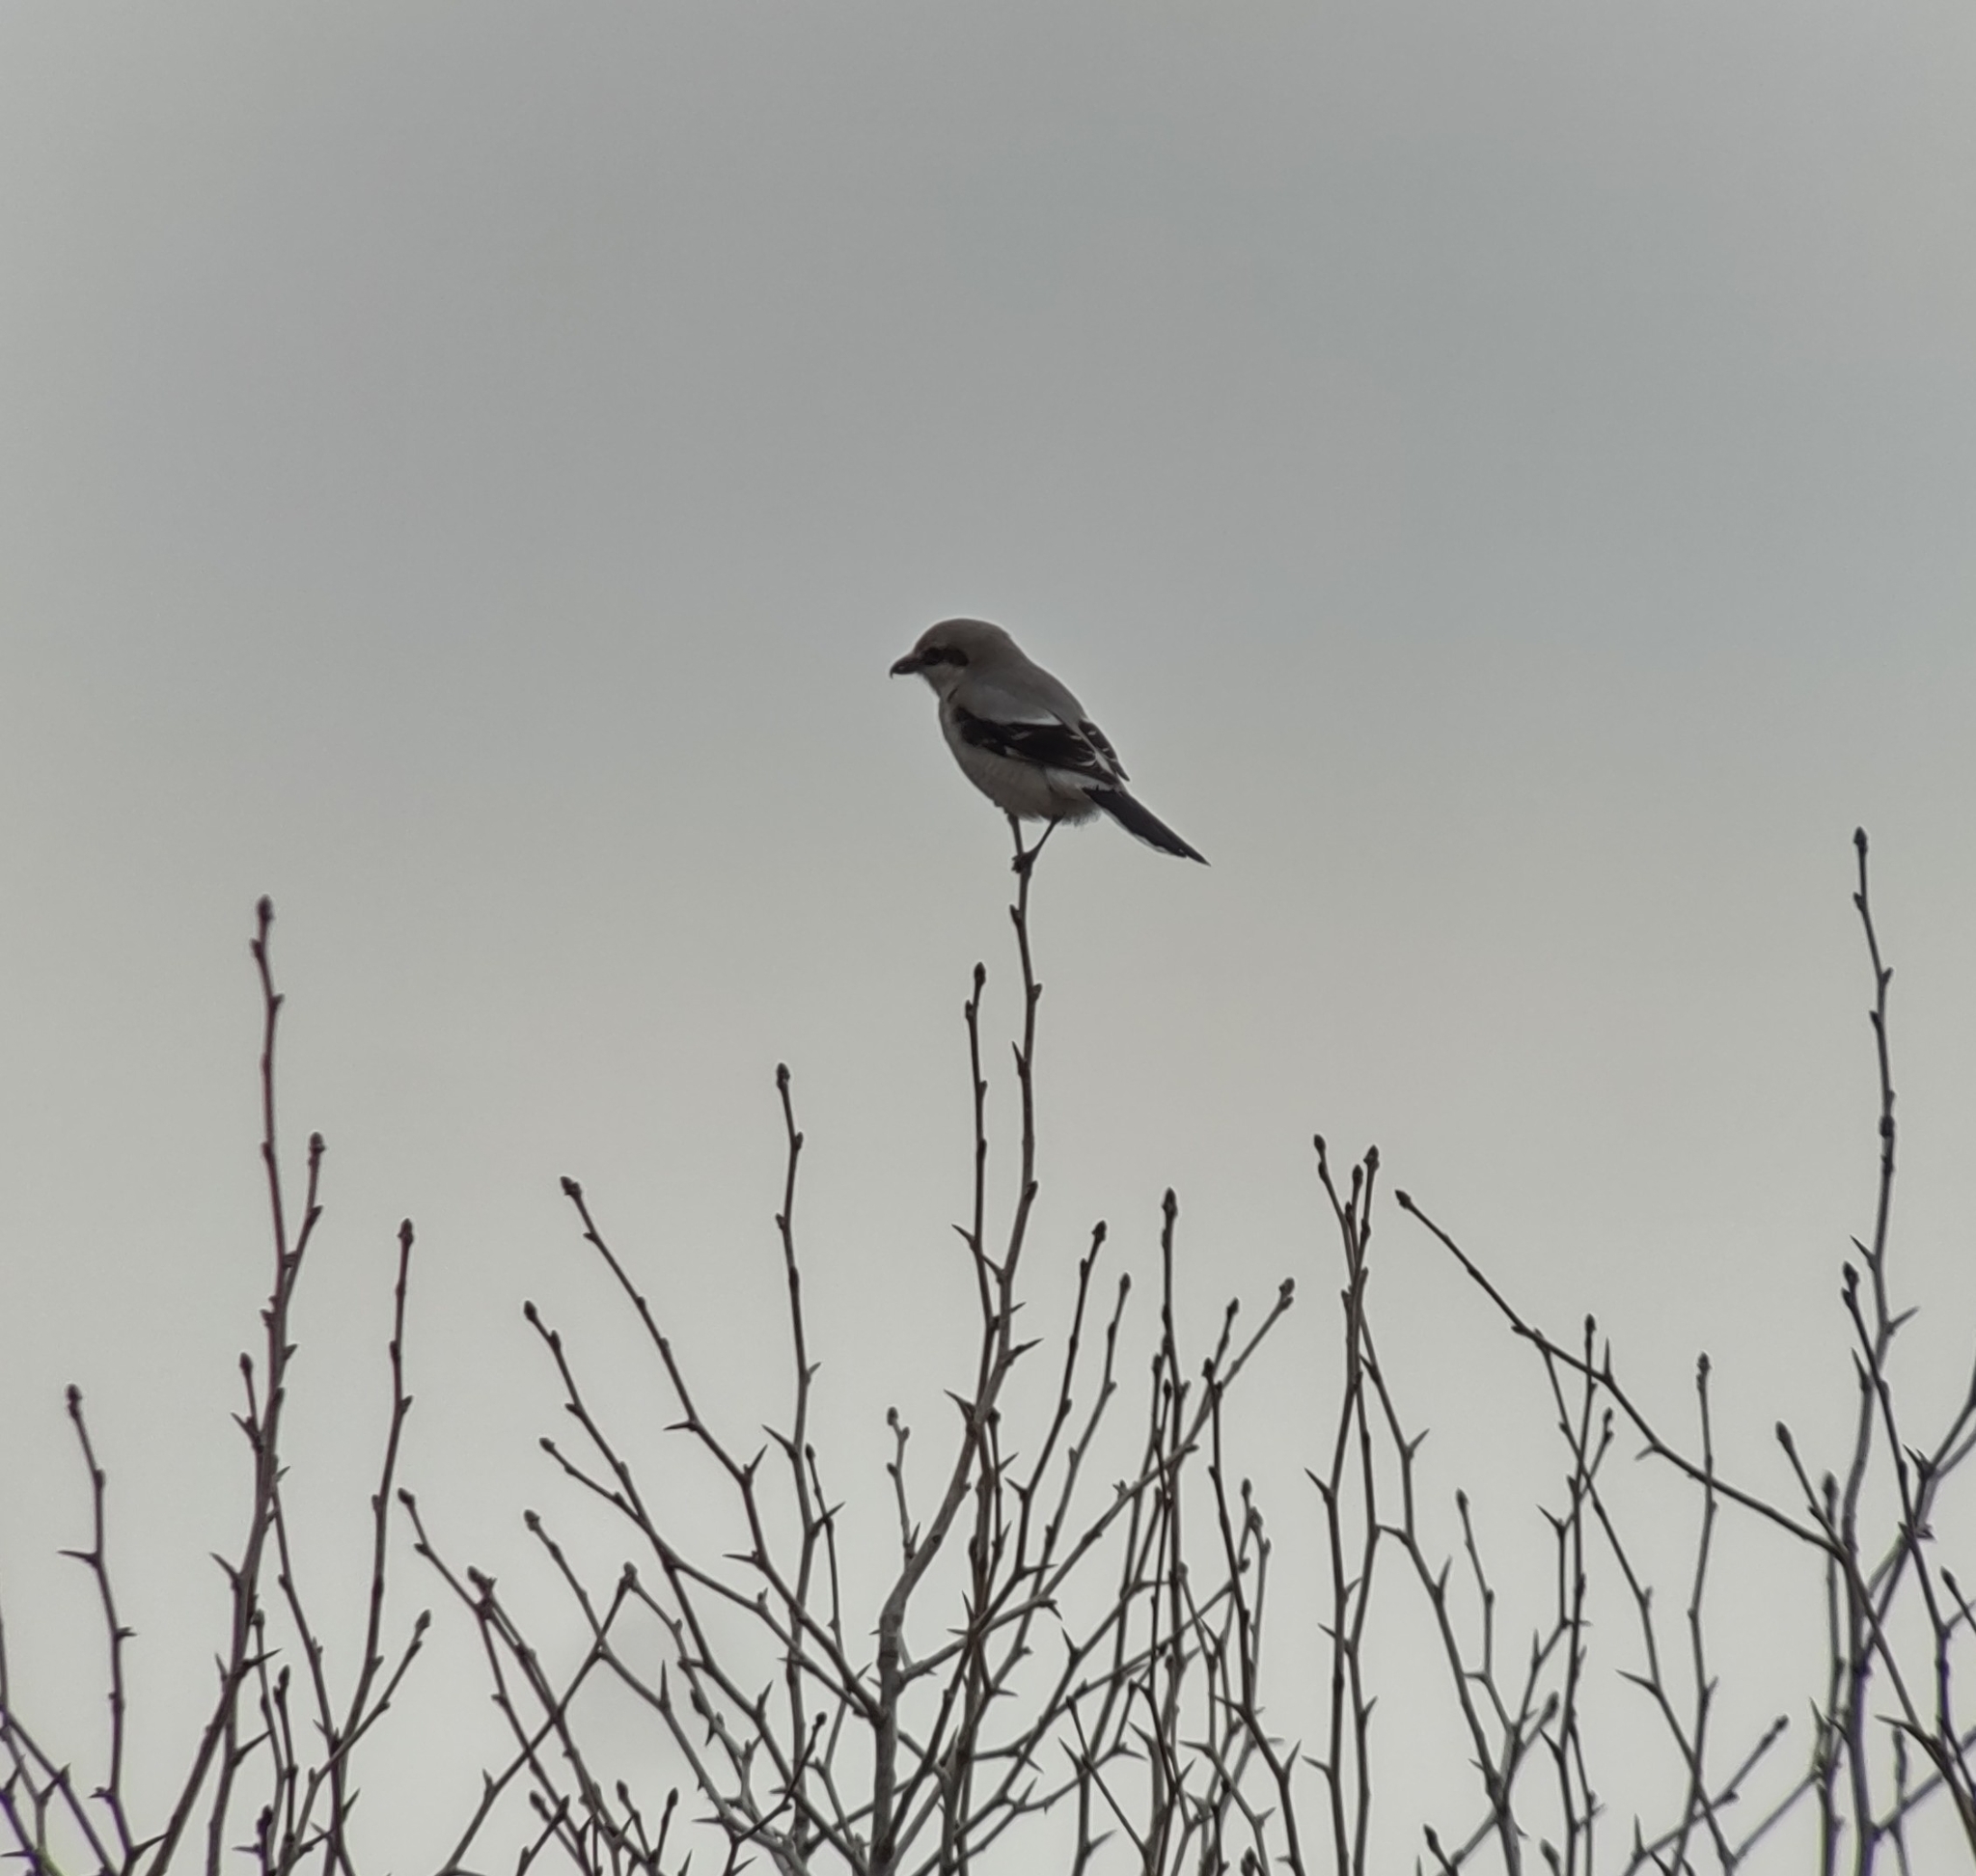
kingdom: Animalia
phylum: Chordata
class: Aves
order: Passeriformes
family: Laniidae
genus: Lanius
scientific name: Lanius borealis
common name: Northern shrike
